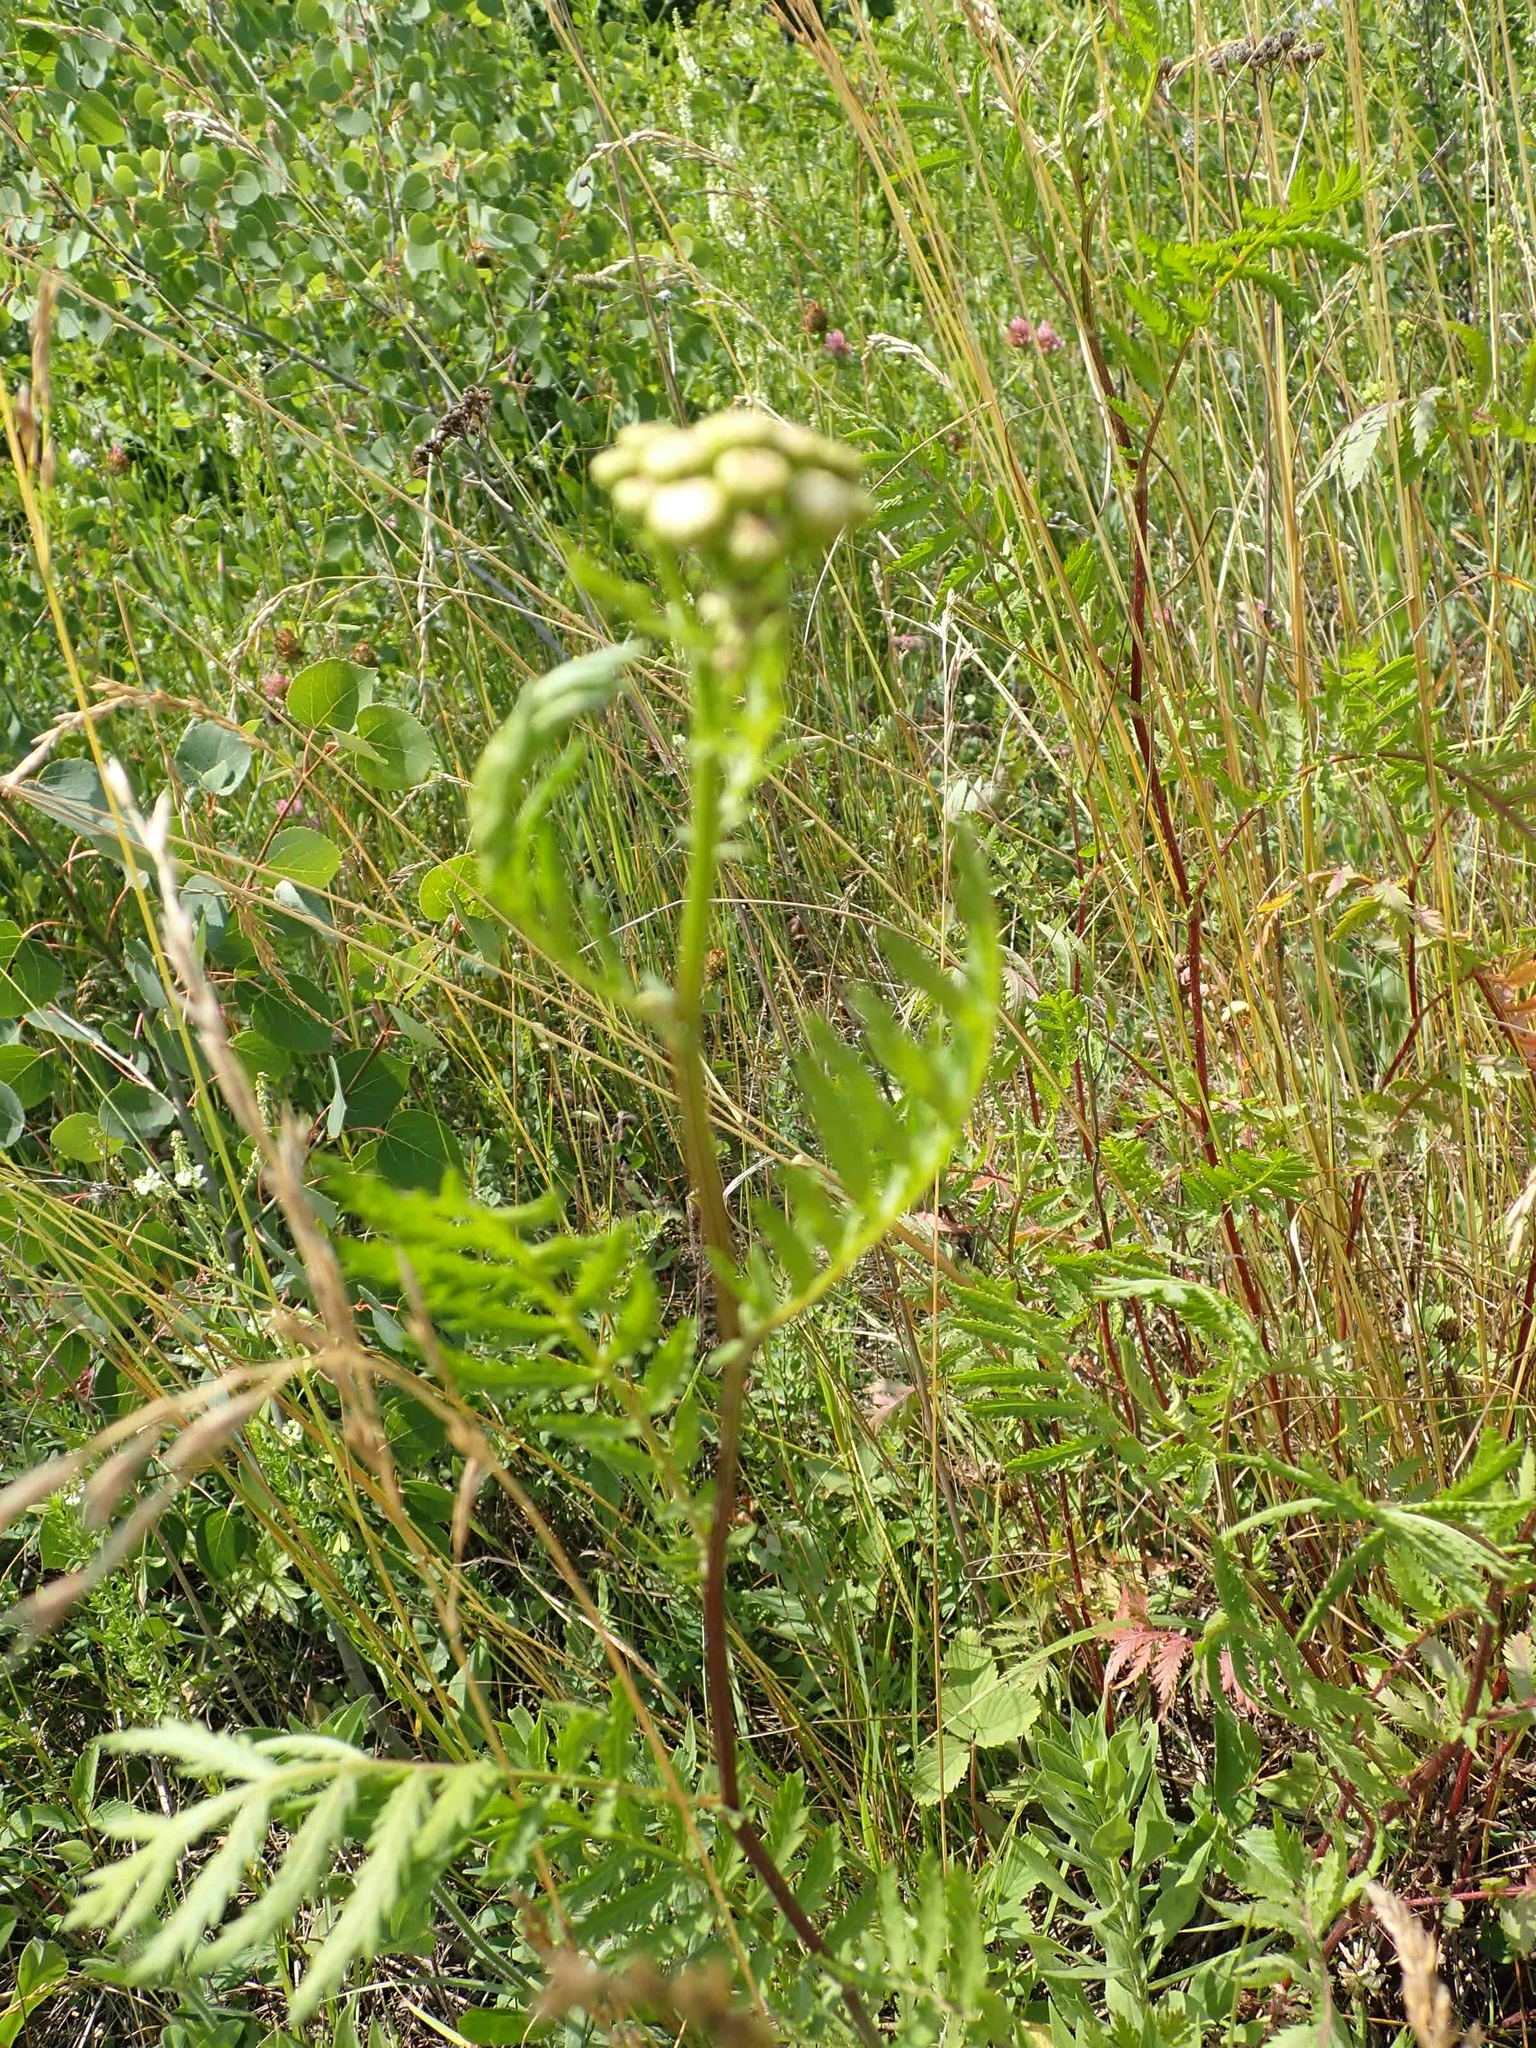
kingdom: Plantae
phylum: Tracheophyta
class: Magnoliopsida
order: Asterales
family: Asteraceae
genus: Tanacetum
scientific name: Tanacetum vulgare
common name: Common tansy
